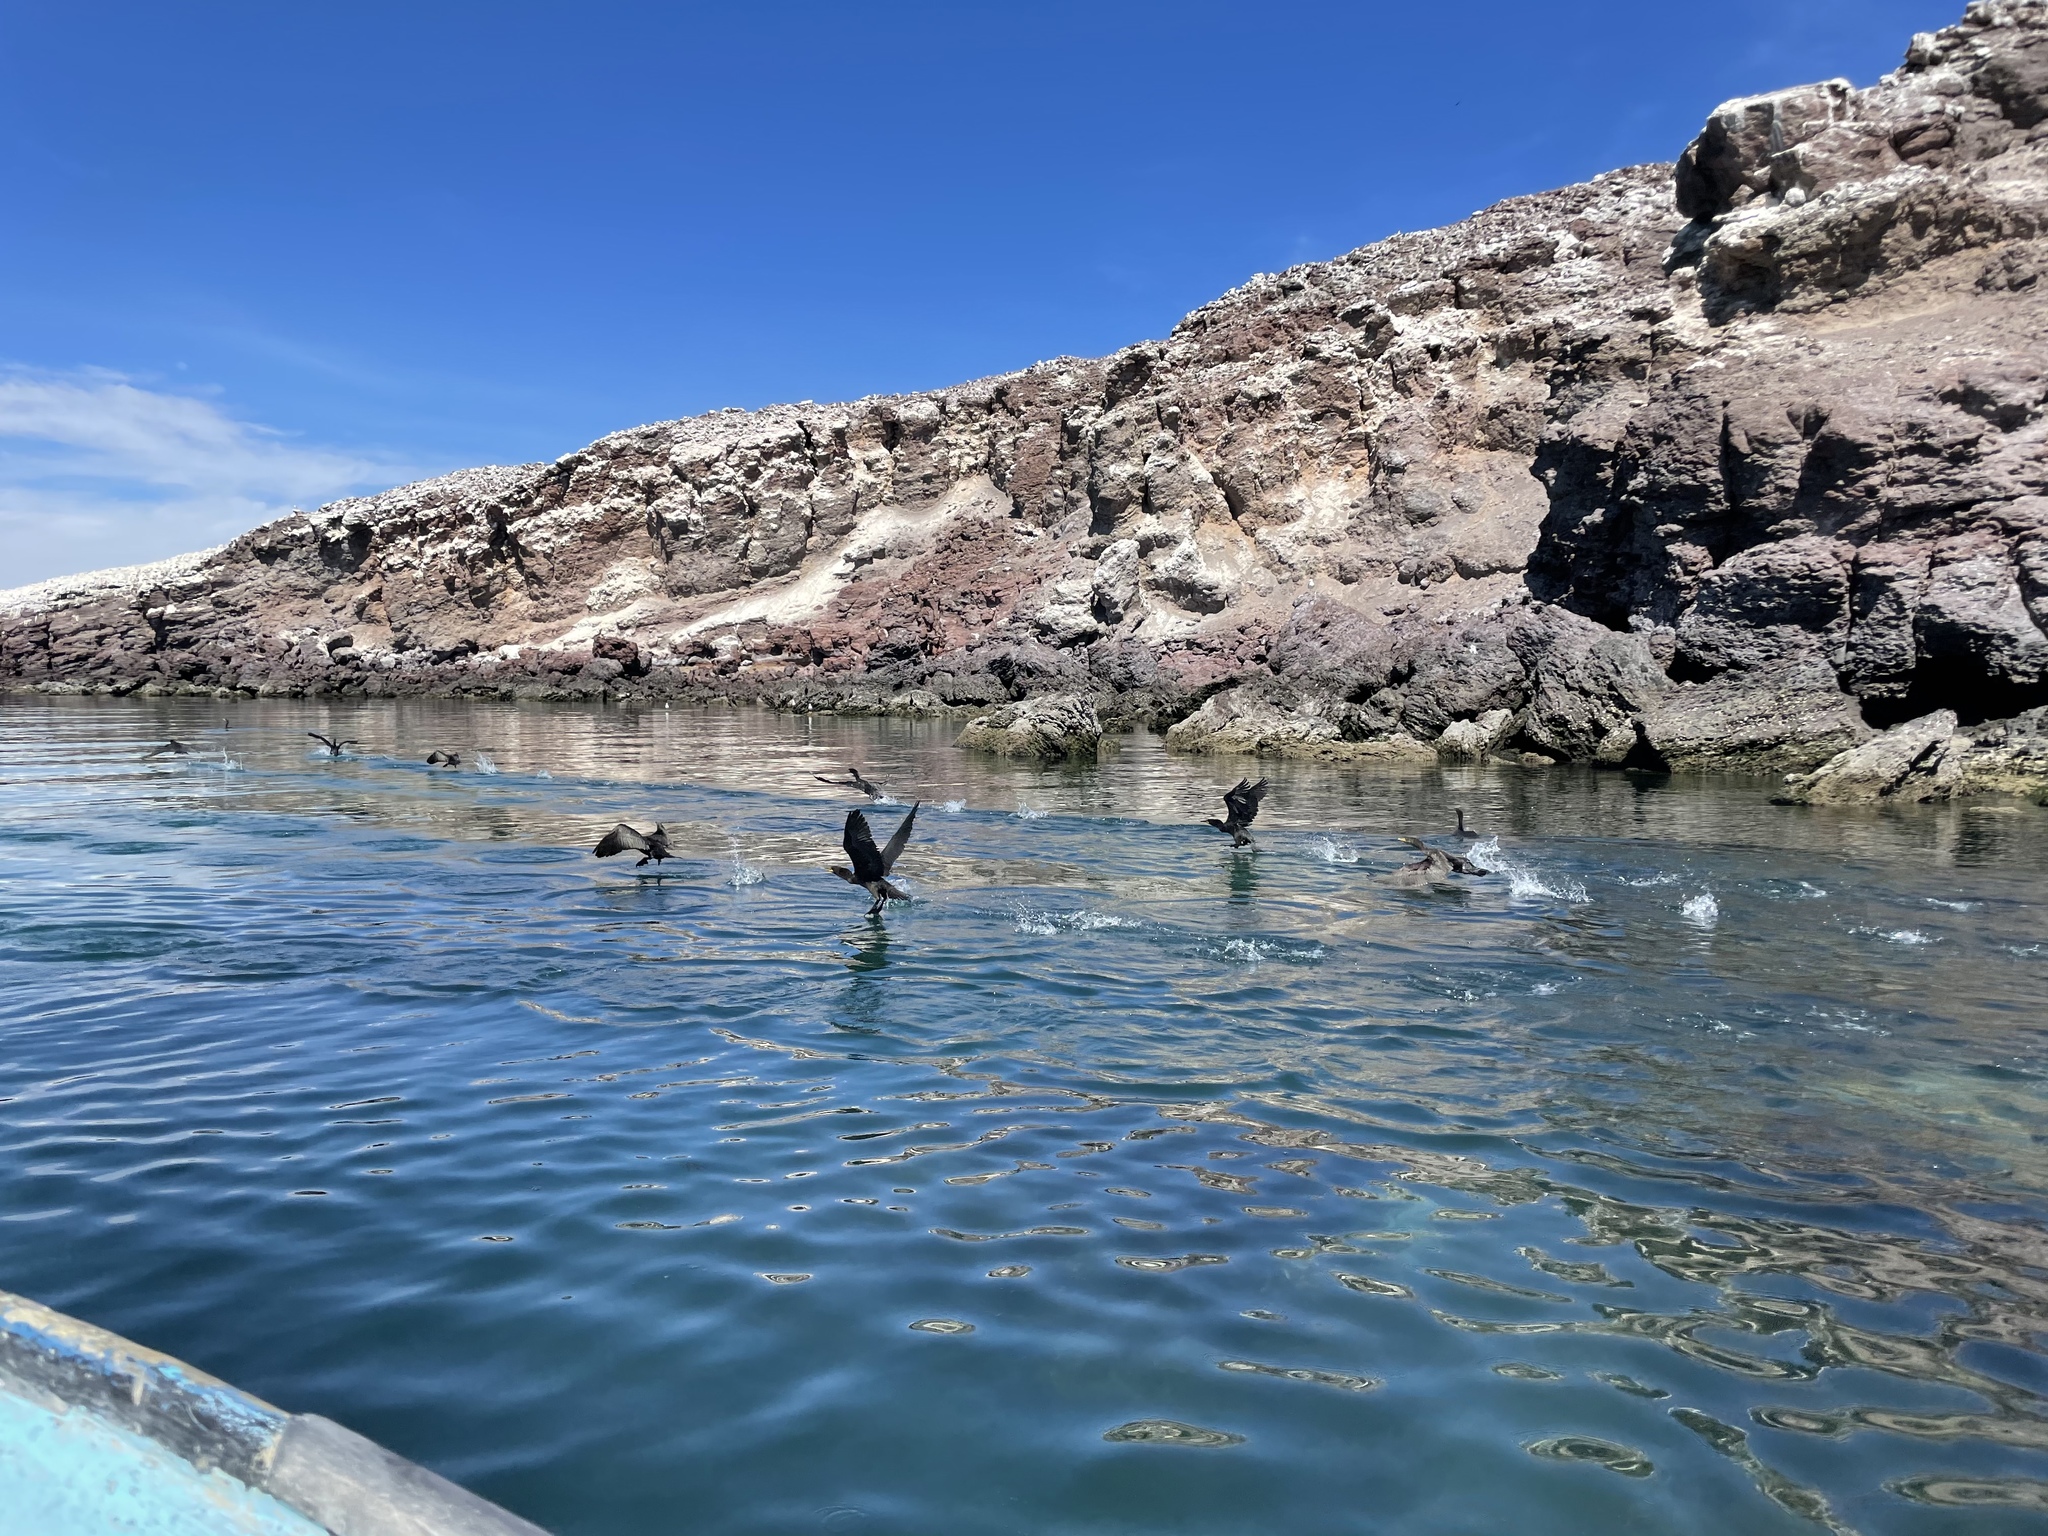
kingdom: Animalia
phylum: Chordata
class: Aves
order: Suliformes
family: Phalacrocoracidae
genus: Urile
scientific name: Urile penicillatus
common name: Brandt's cormorant
